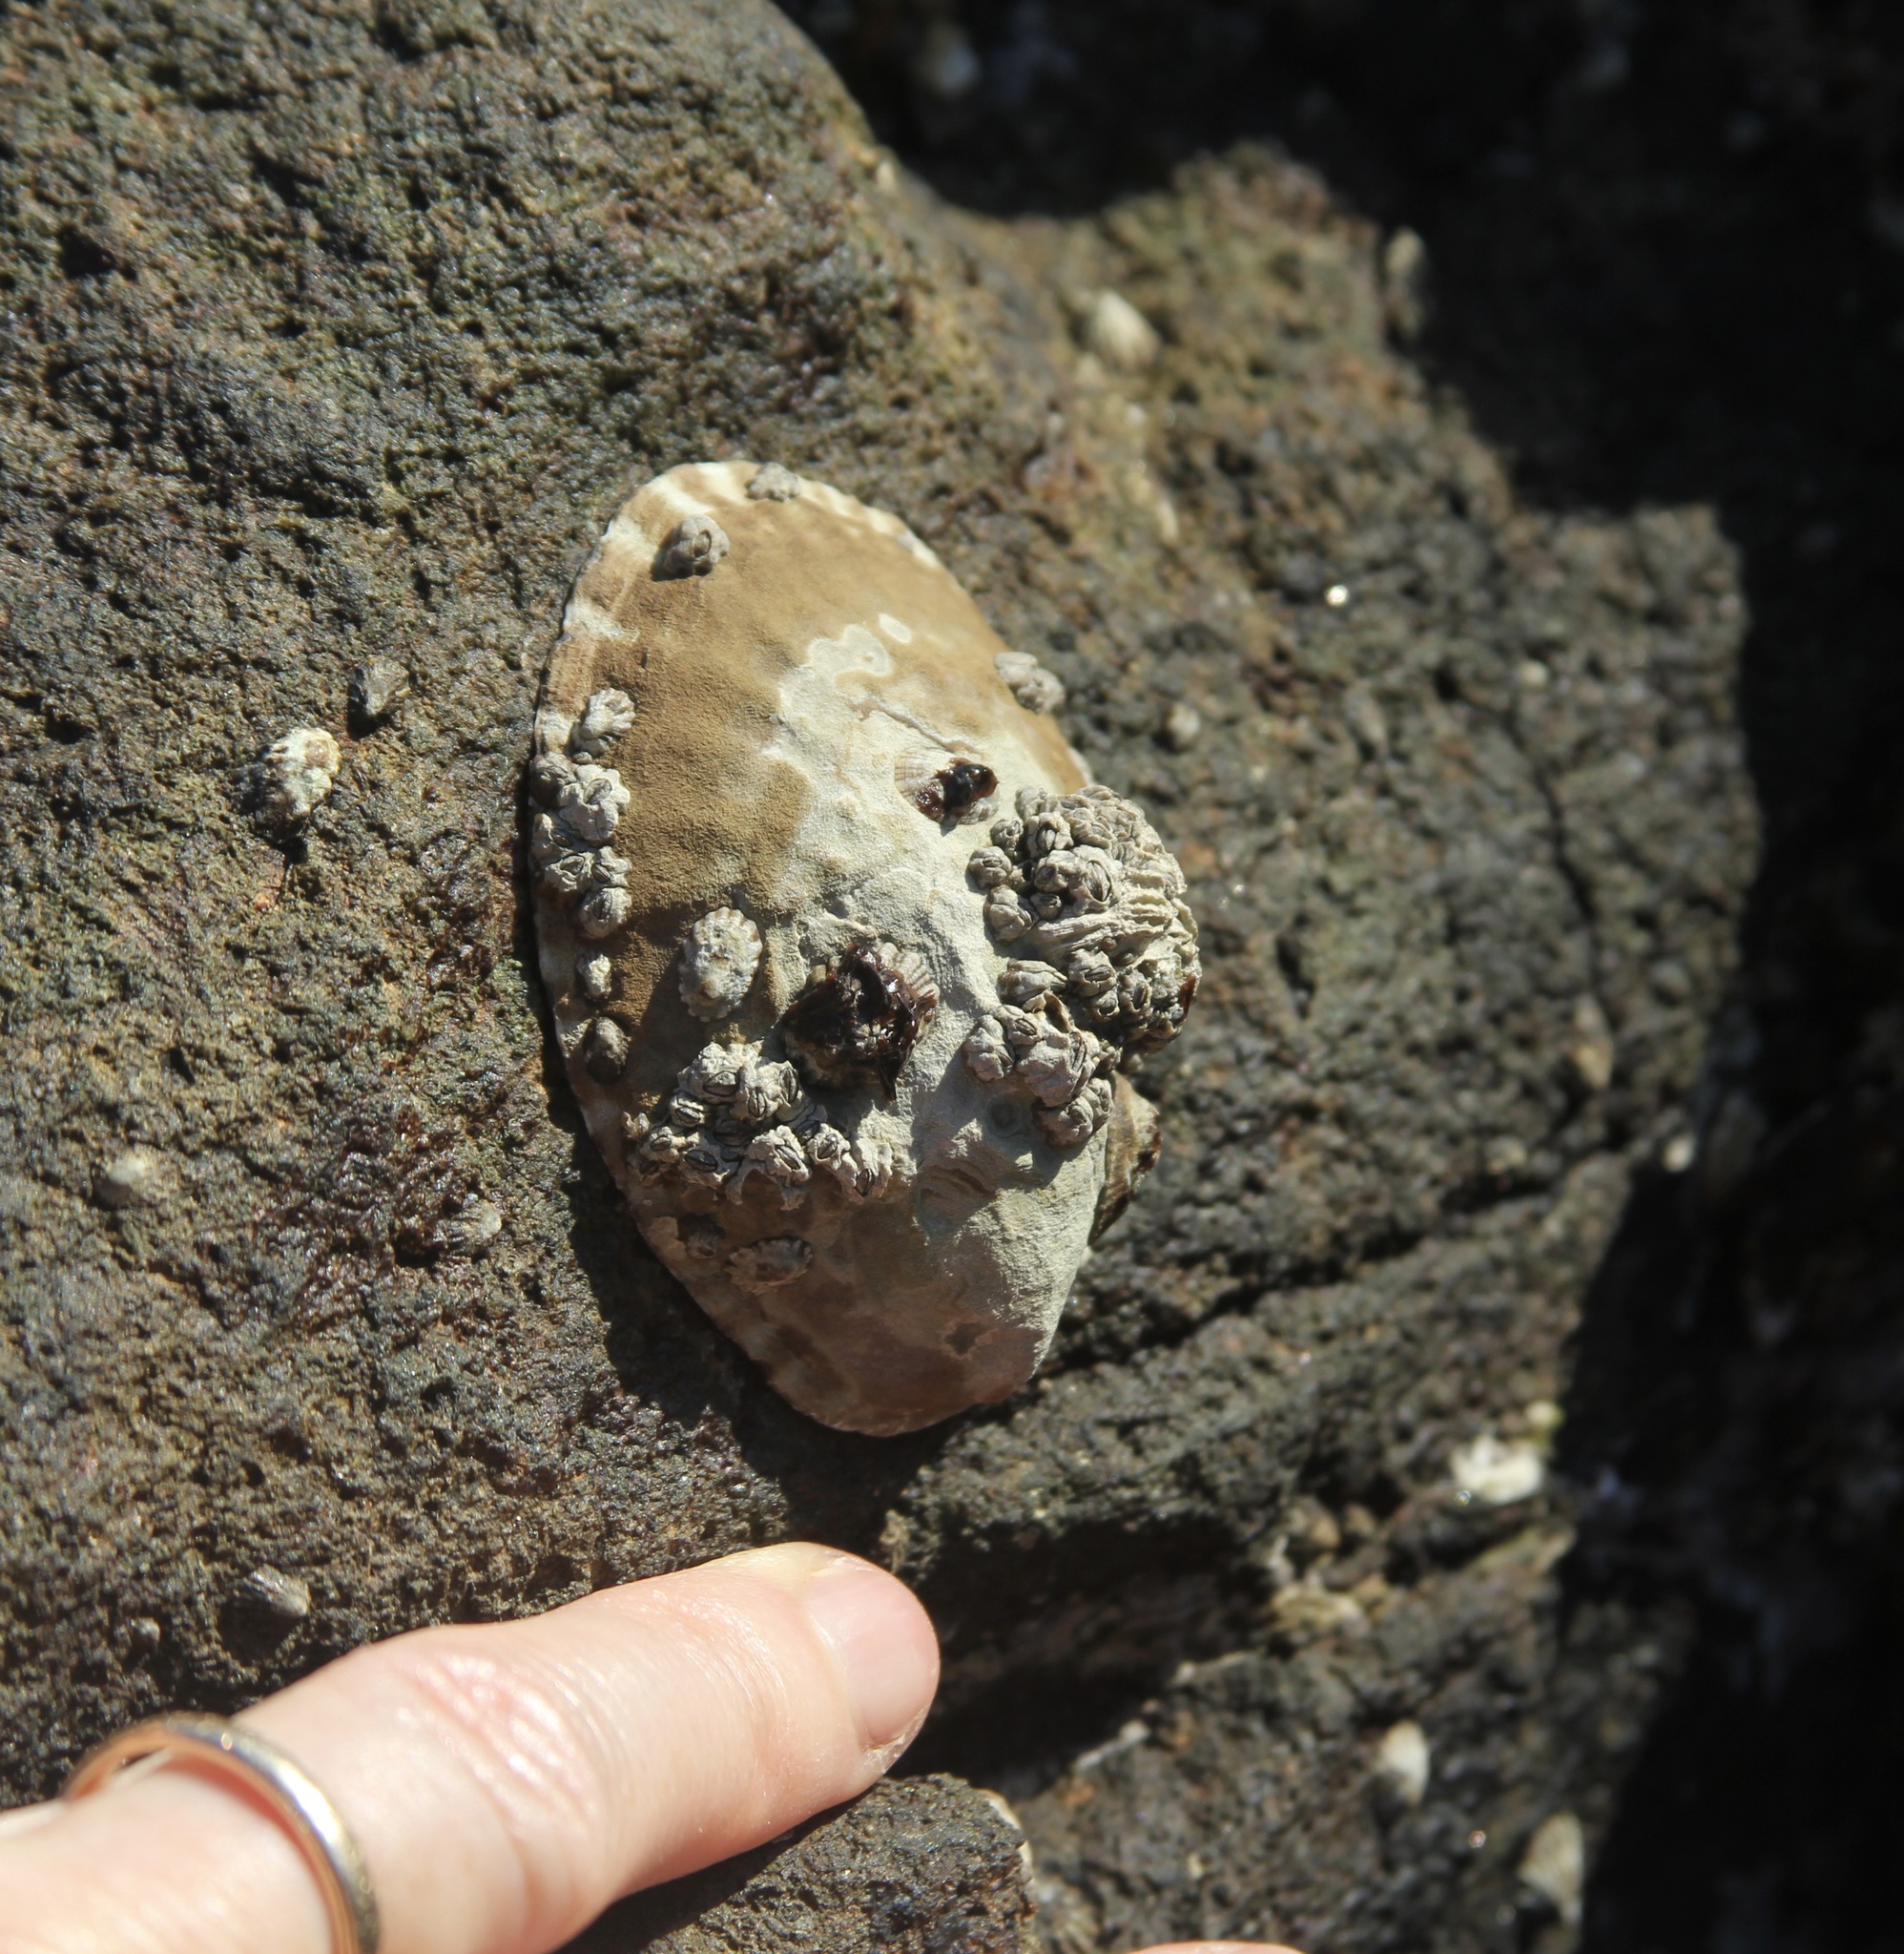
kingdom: Animalia
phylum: Mollusca
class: Gastropoda
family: Lottiidae
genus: Lottia
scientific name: Lottia gigantea
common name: Owl limpet
